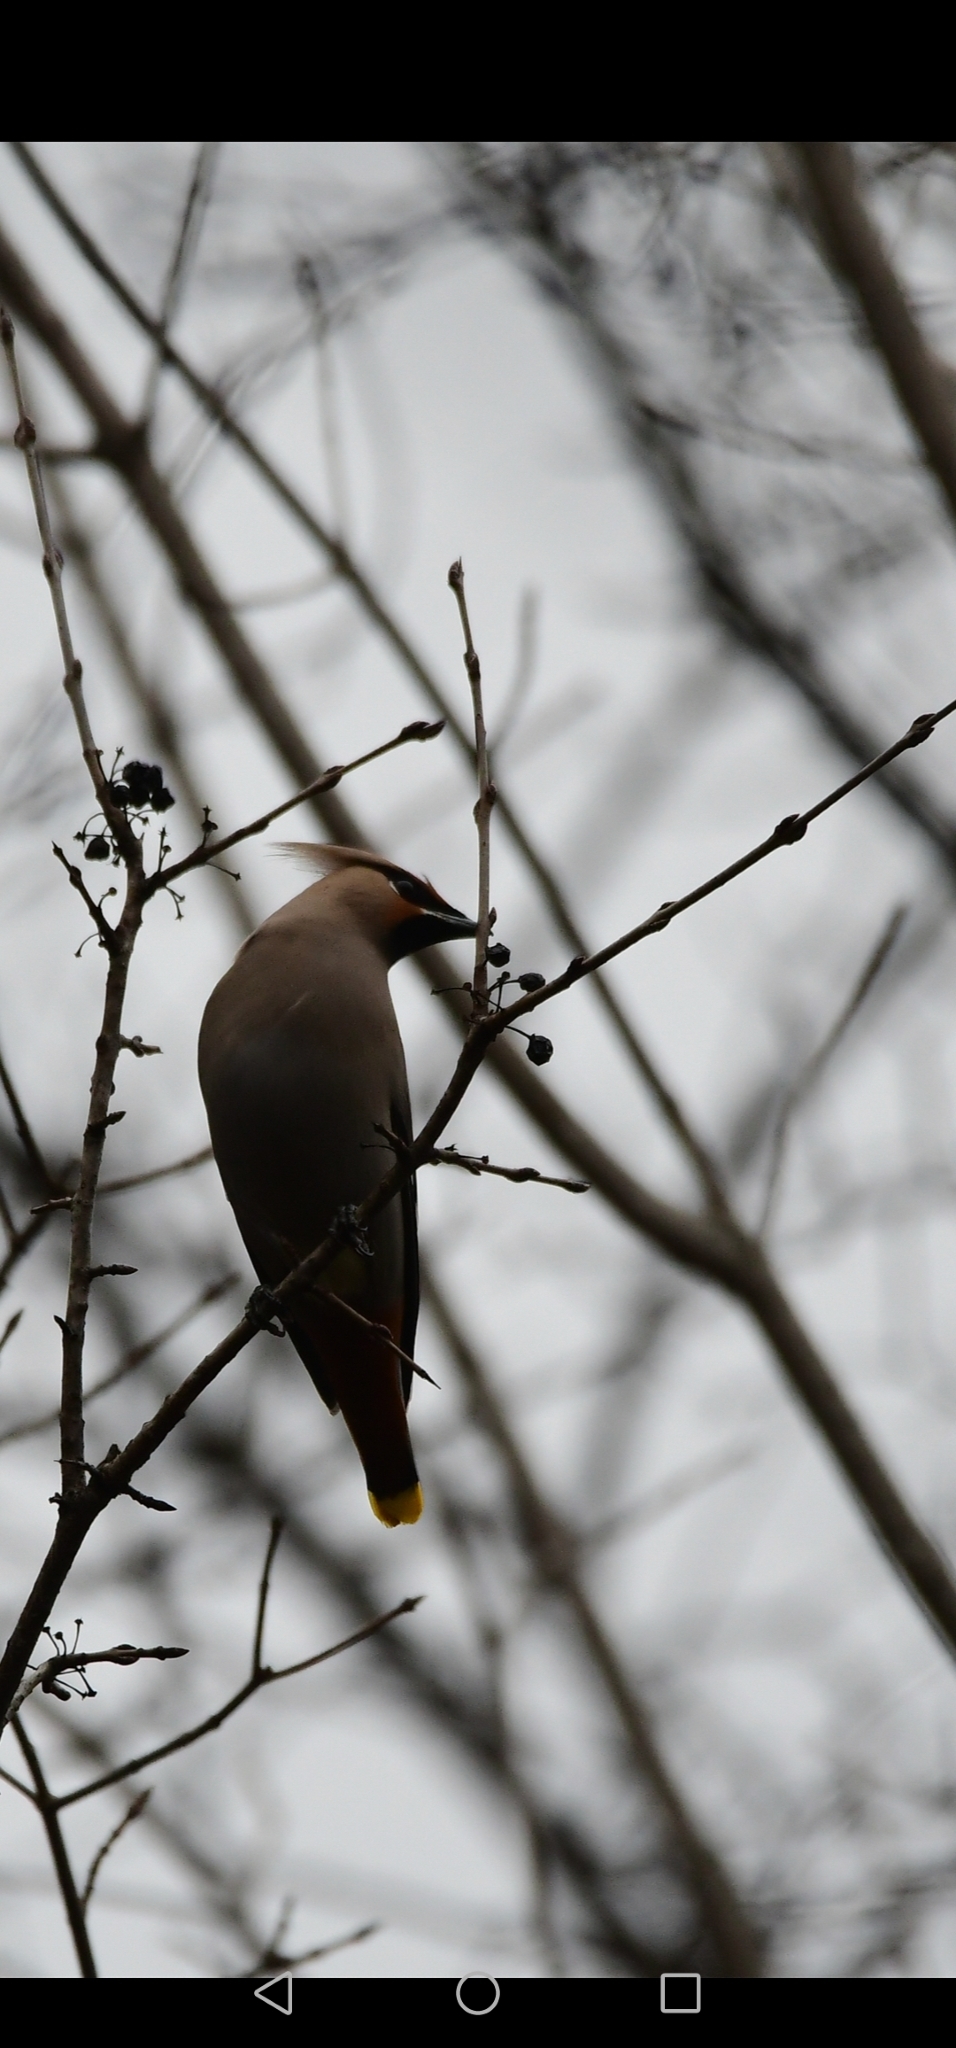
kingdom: Animalia
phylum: Chordata
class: Aves
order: Passeriformes
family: Bombycillidae
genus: Bombycilla
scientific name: Bombycilla cedrorum
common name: Cedar waxwing
